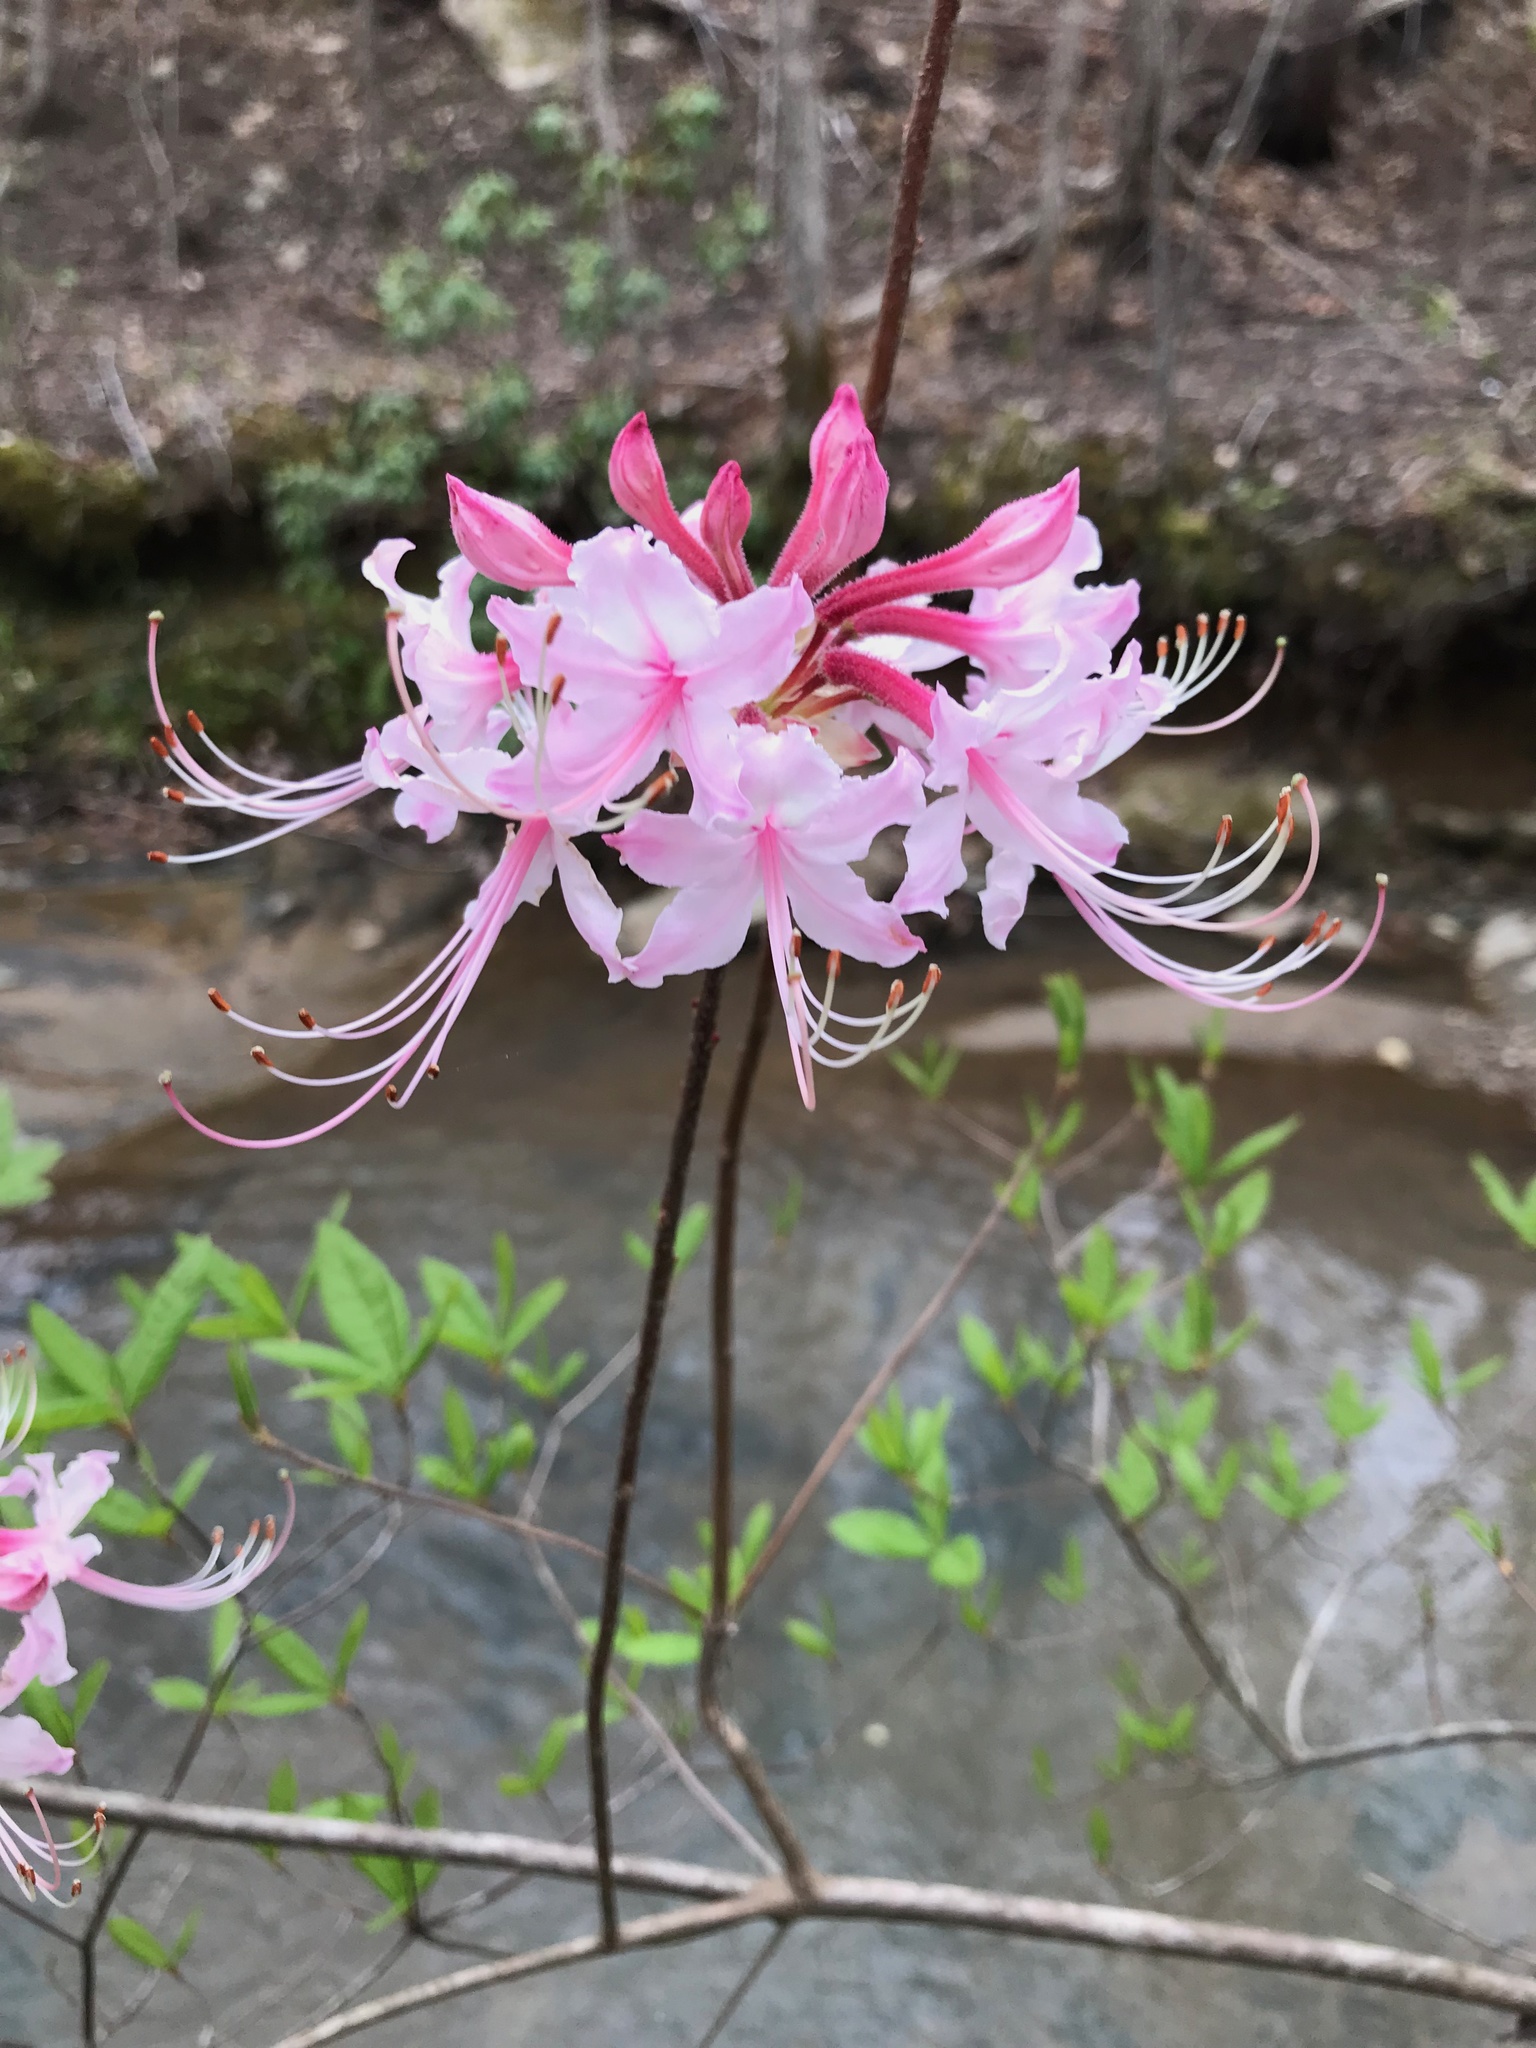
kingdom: Plantae
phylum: Tracheophyta
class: Magnoliopsida
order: Ericales
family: Ericaceae
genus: Rhododendron
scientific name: Rhododendron periclymenoides
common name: Election-pink
